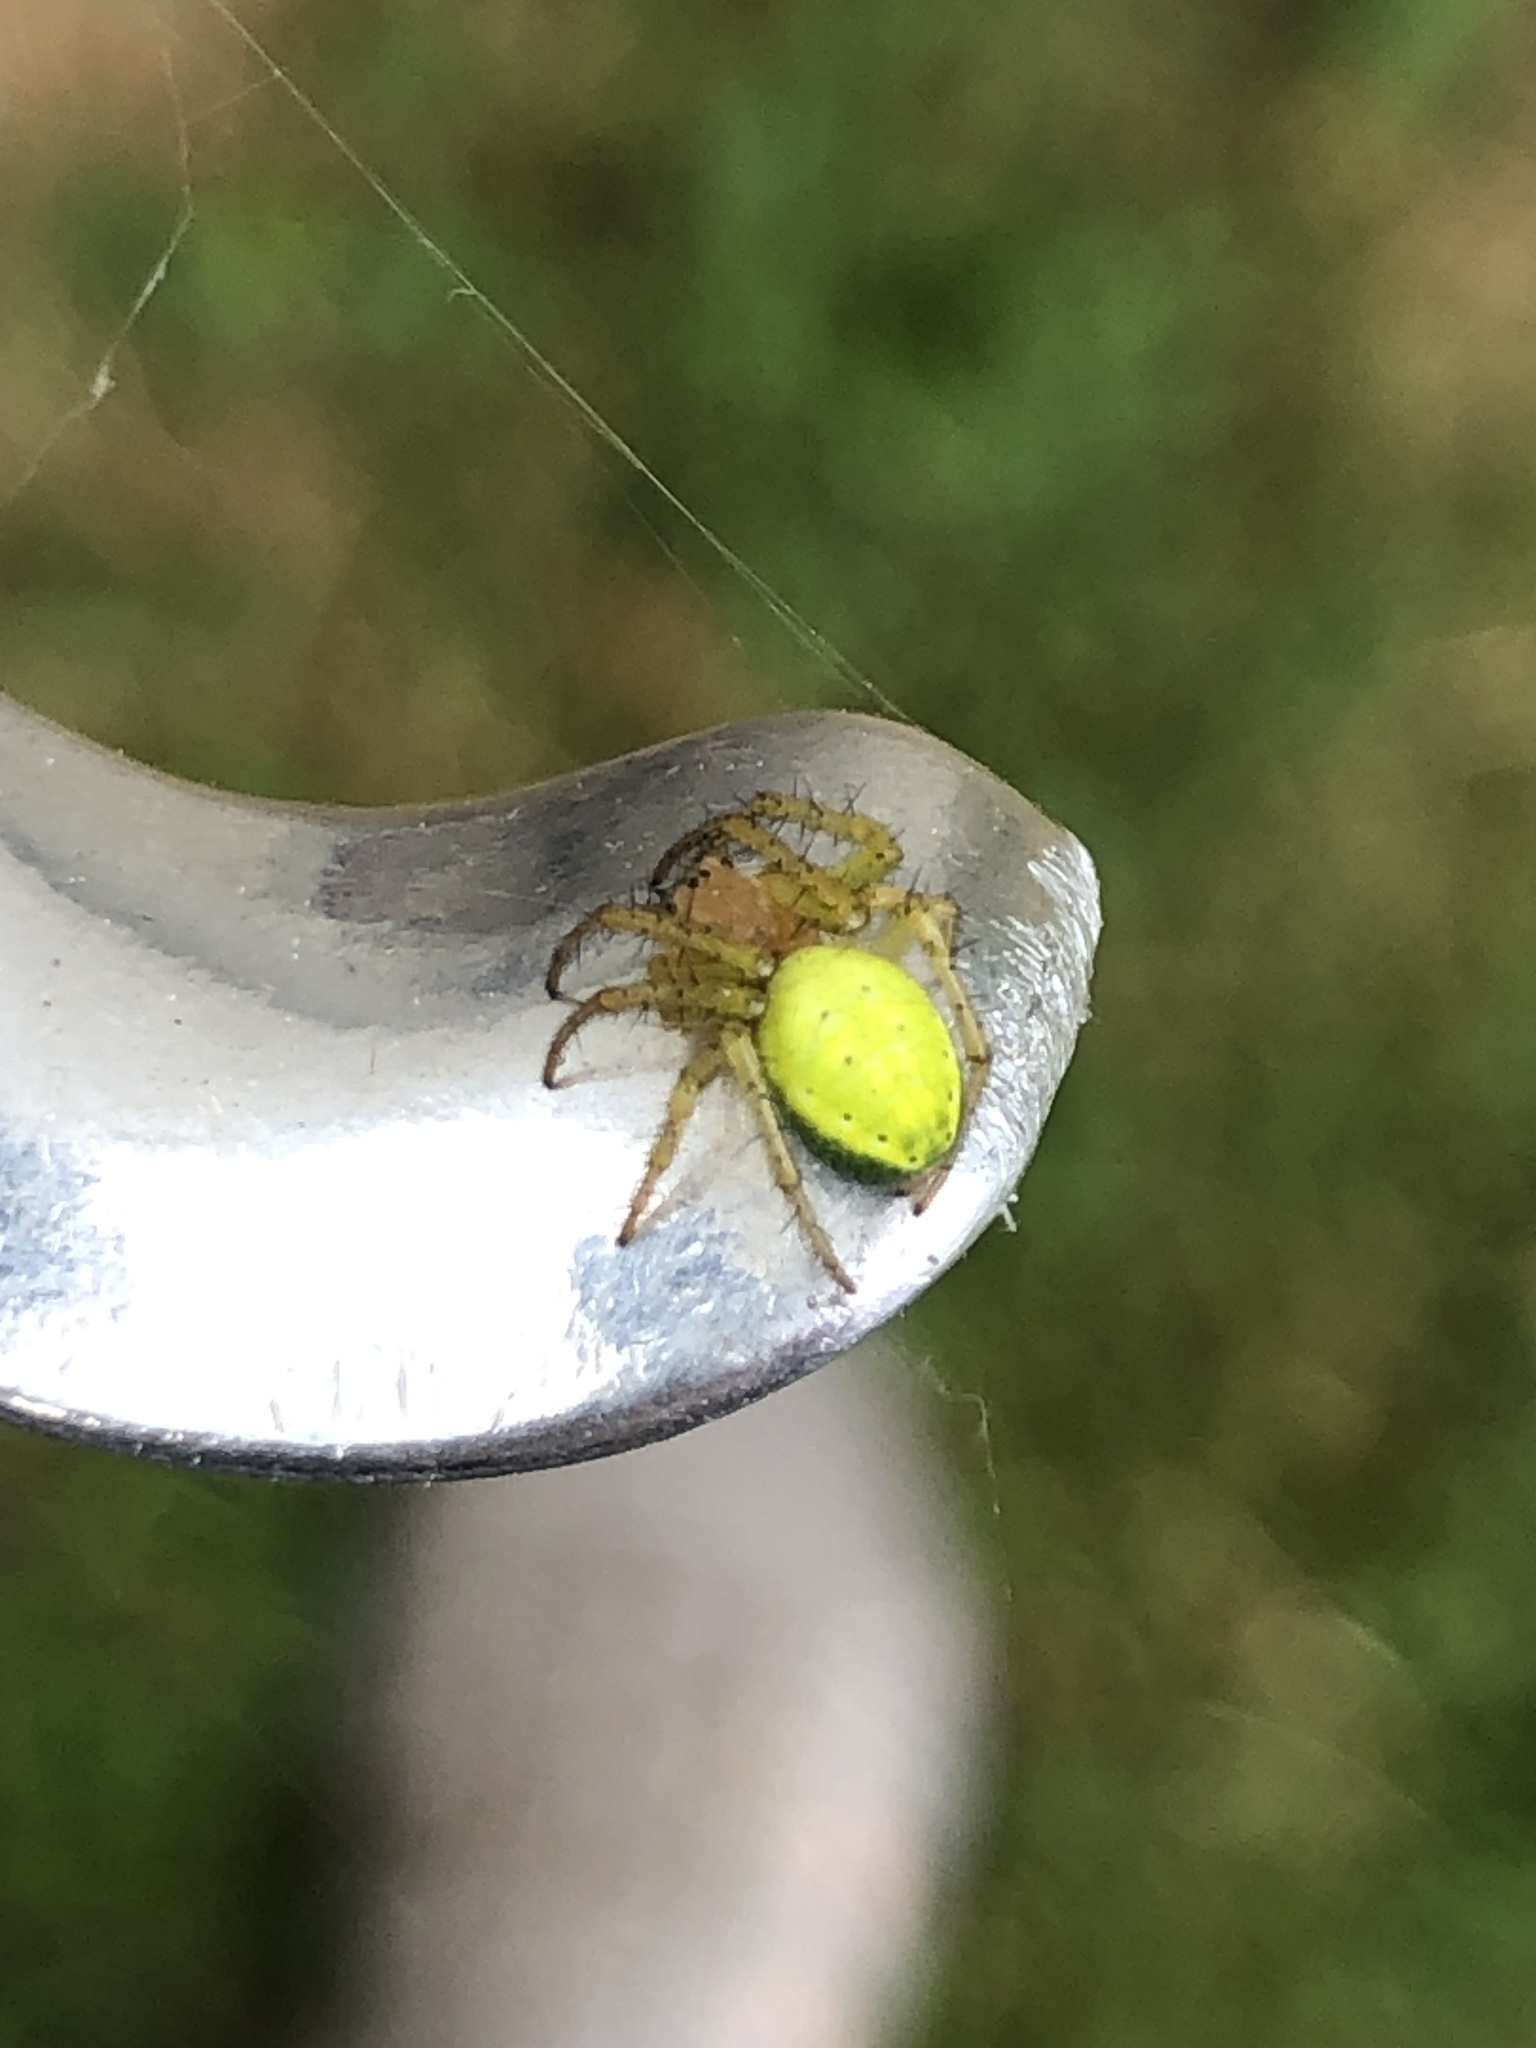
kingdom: Animalia
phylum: Arthropoda
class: Arachnida
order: Araneae
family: Araneidae
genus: Araniella
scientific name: Araniella
